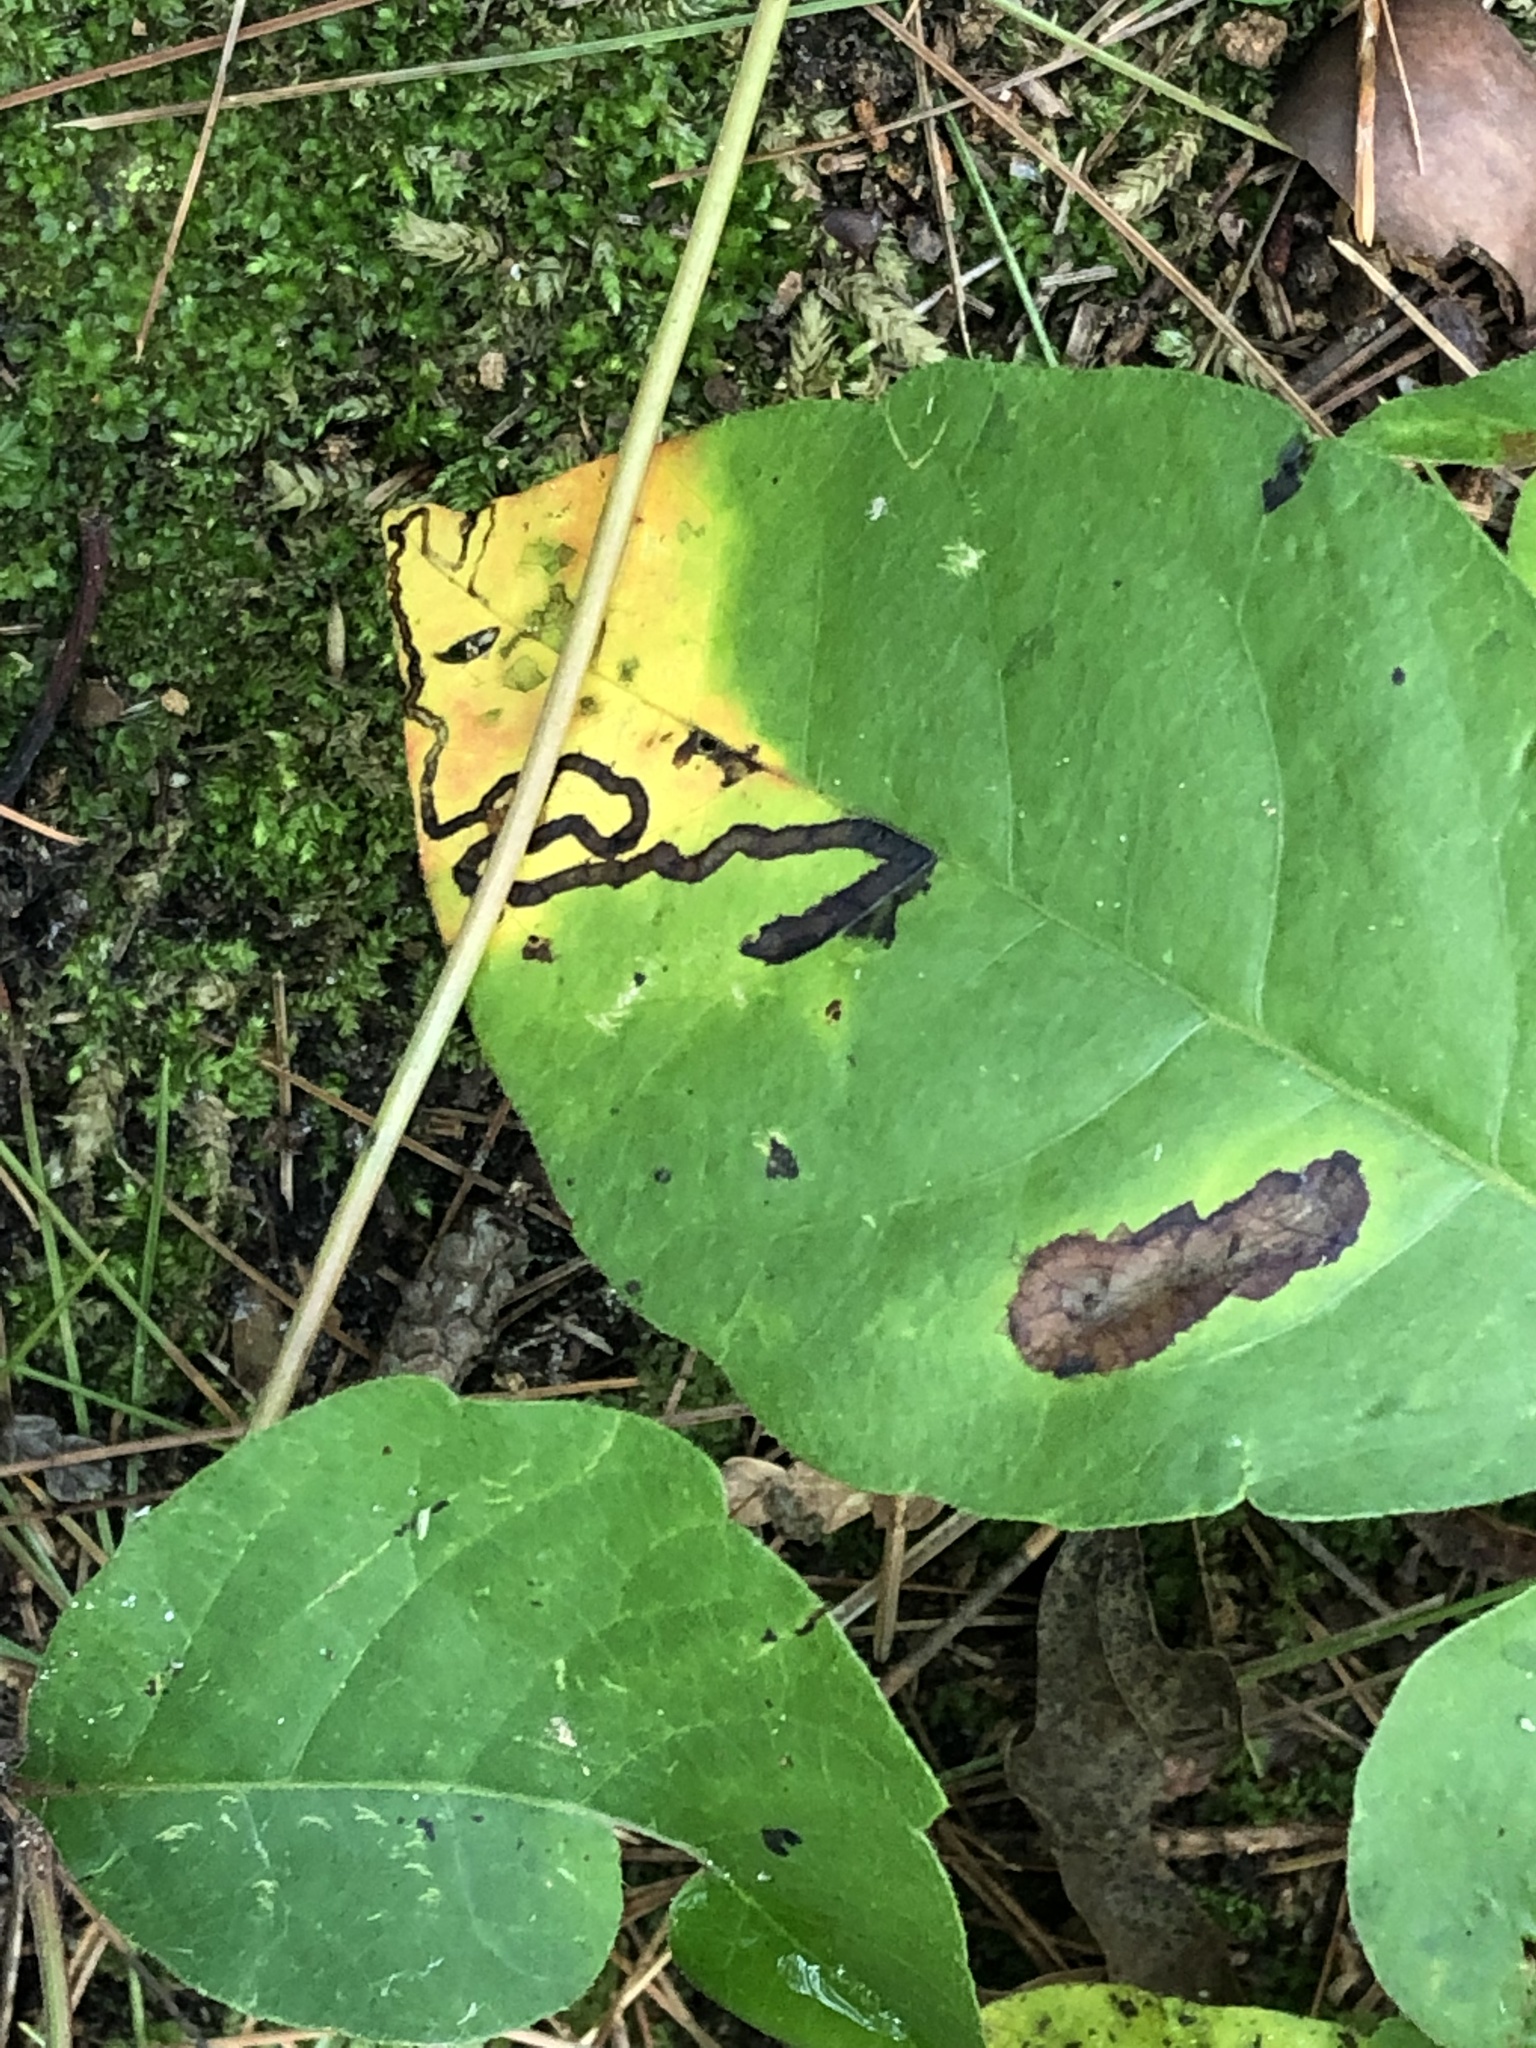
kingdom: Animalia
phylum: Arthropoda
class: Insecta
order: Lepidoptera
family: Nepticulidae
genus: Stigmella
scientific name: Stigmella rhoifoliella
